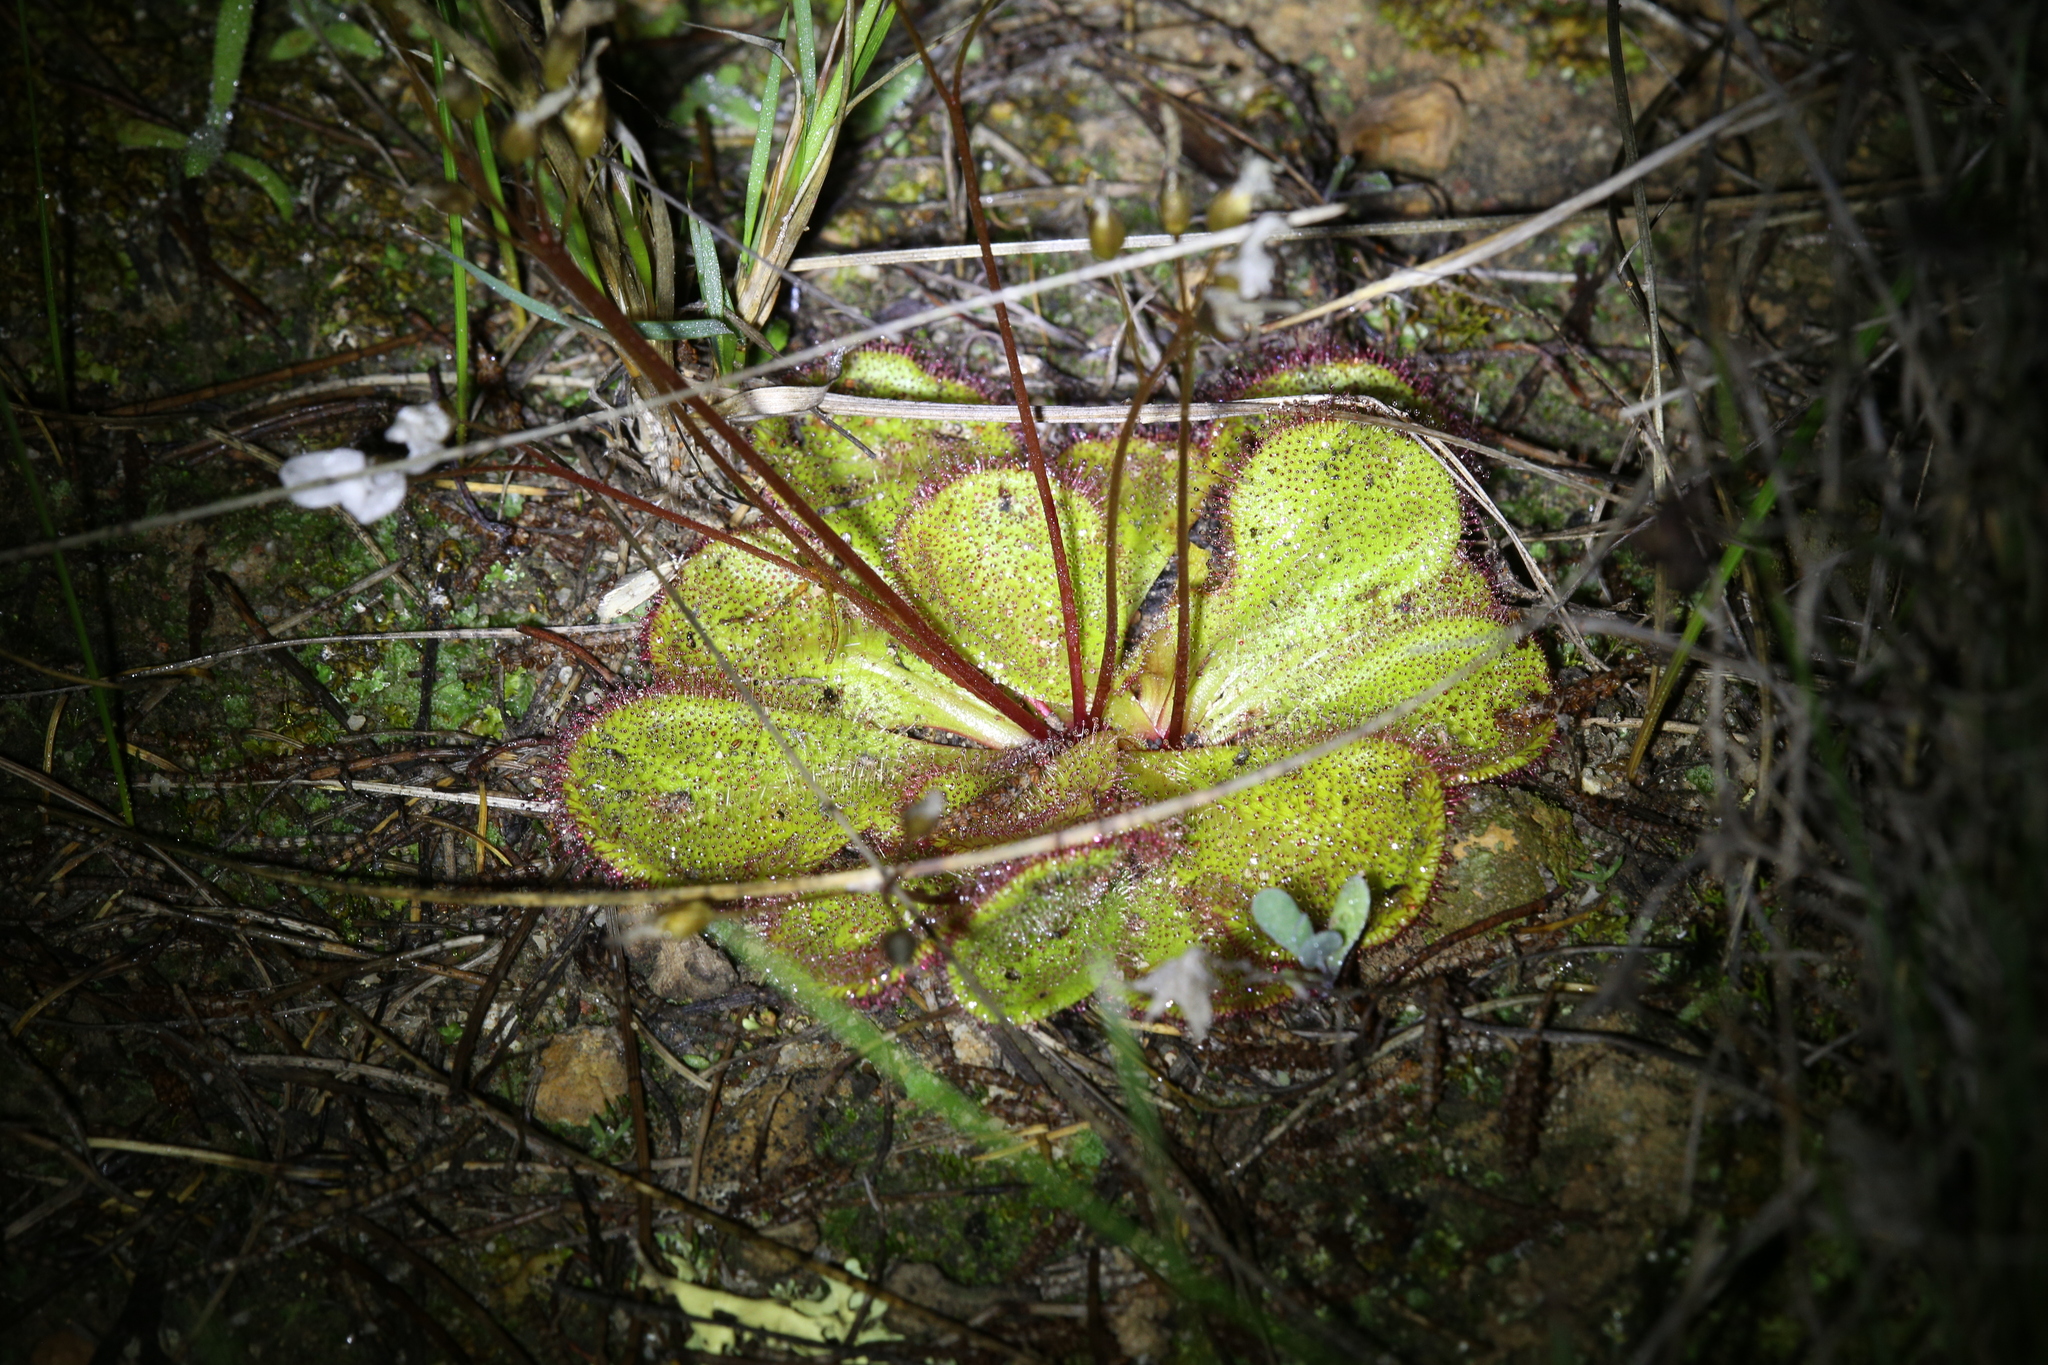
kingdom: Plantae
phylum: Tracheophyta
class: Magnoliopsida
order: Caryophyllales
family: Droseraceae
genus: Drosera
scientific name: Drosera macrophylla
